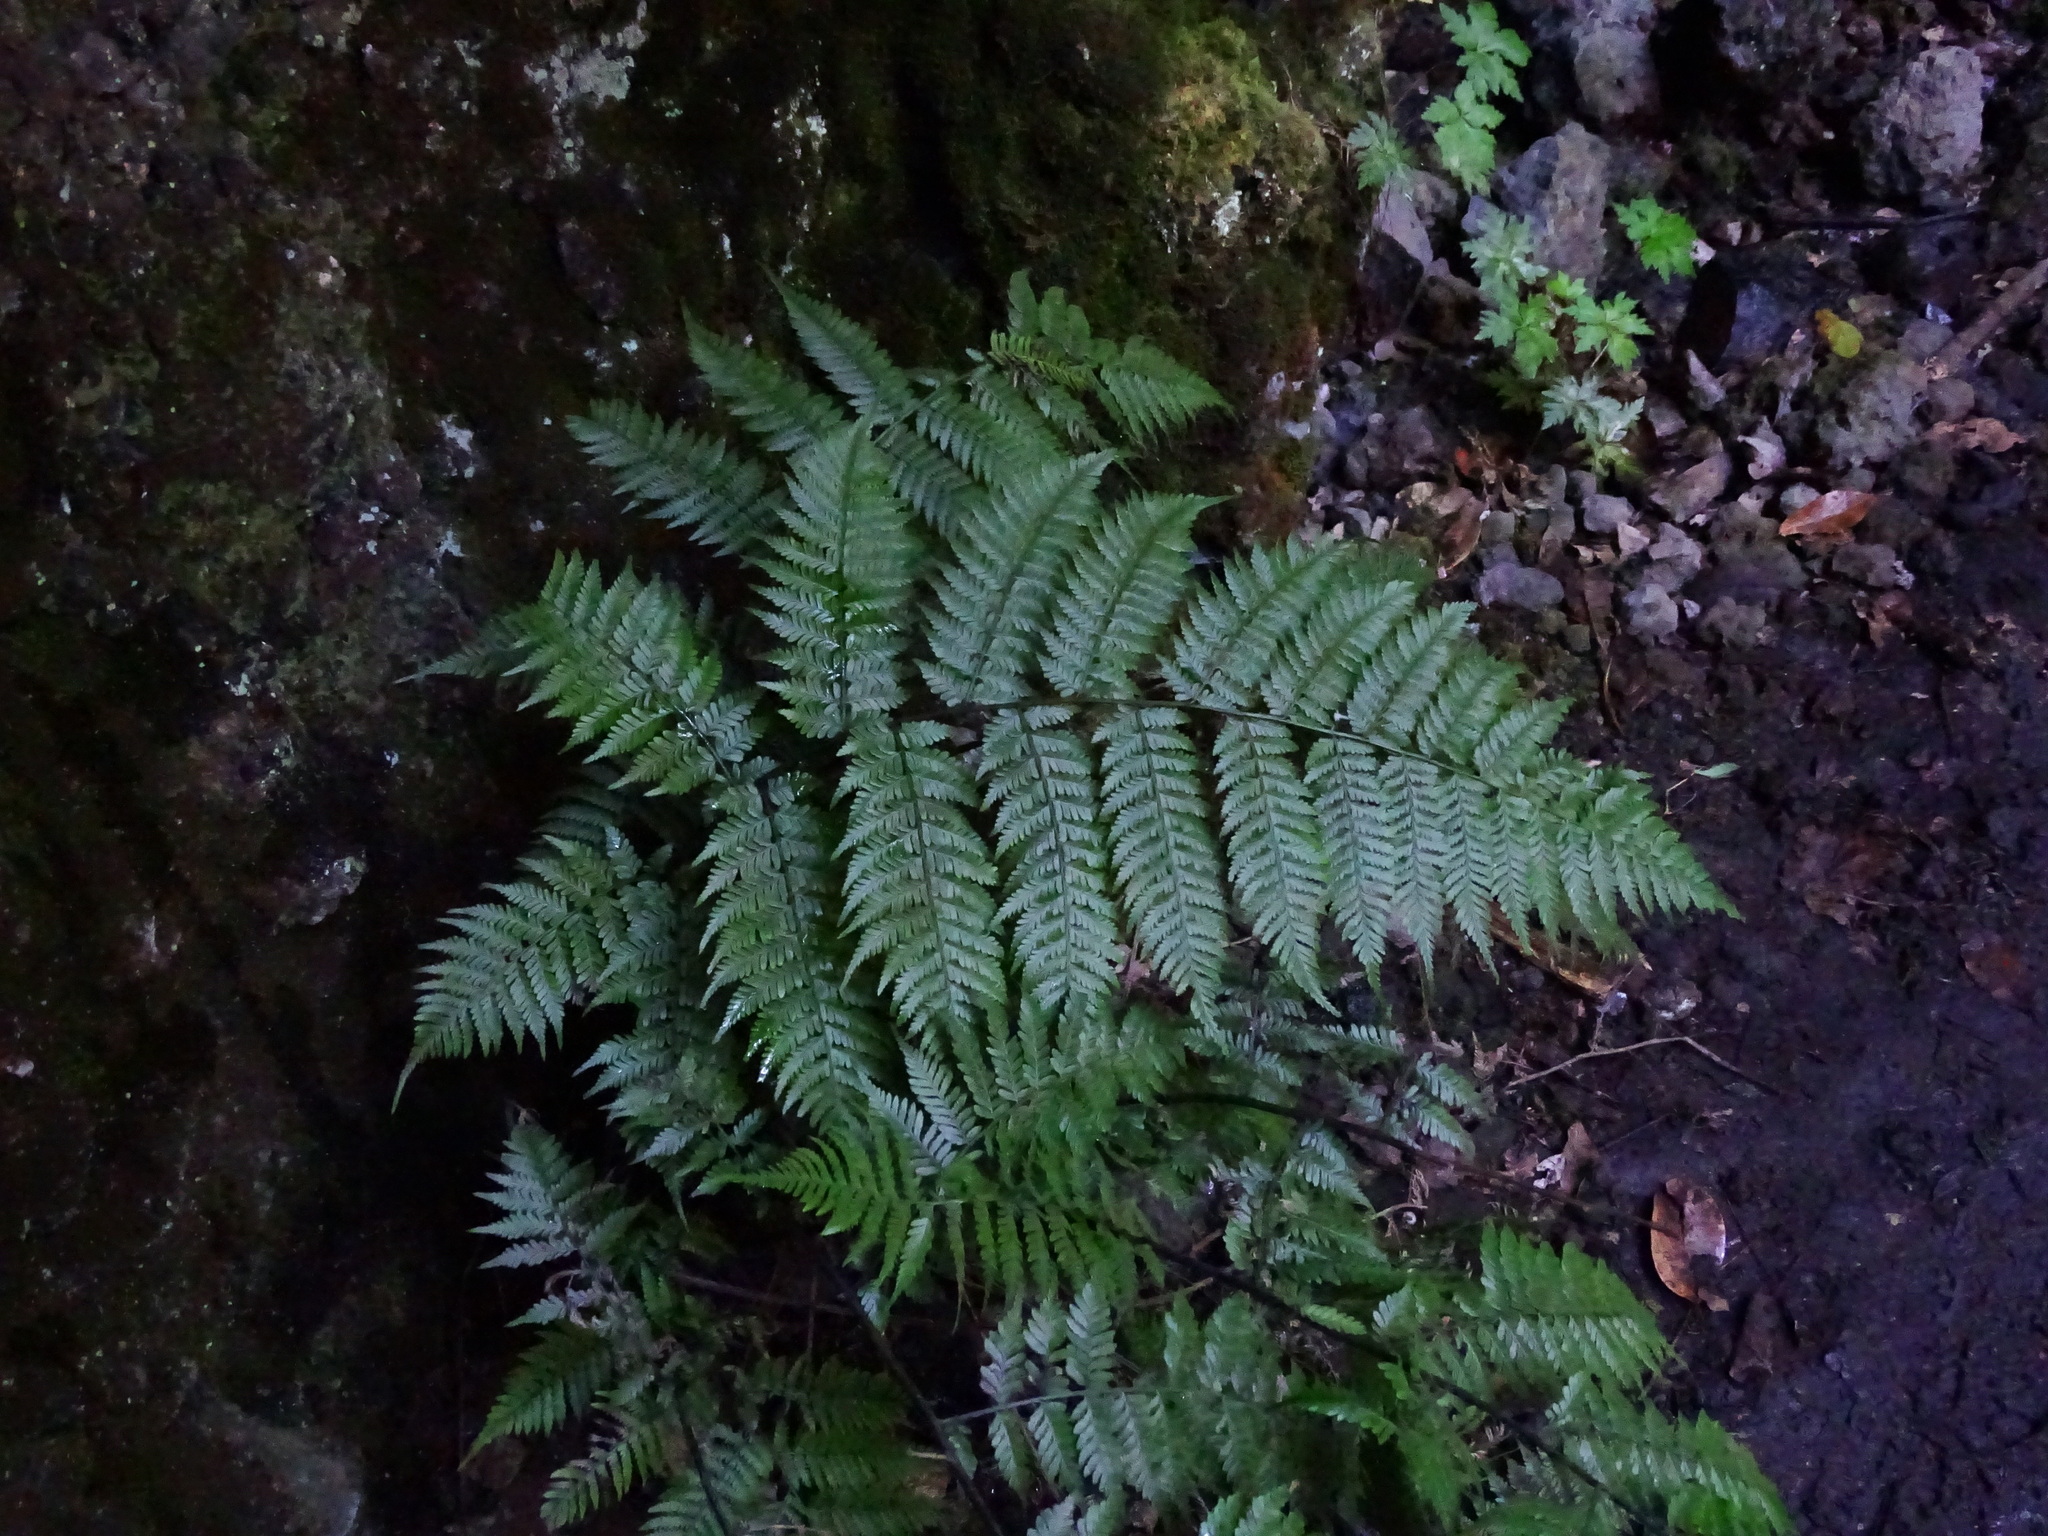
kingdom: Plantae
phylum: Tracheophyta
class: Polypodiopsida
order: Polypodiales
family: Athyriaceae
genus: Diplazium
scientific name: Diplazium caudatum
